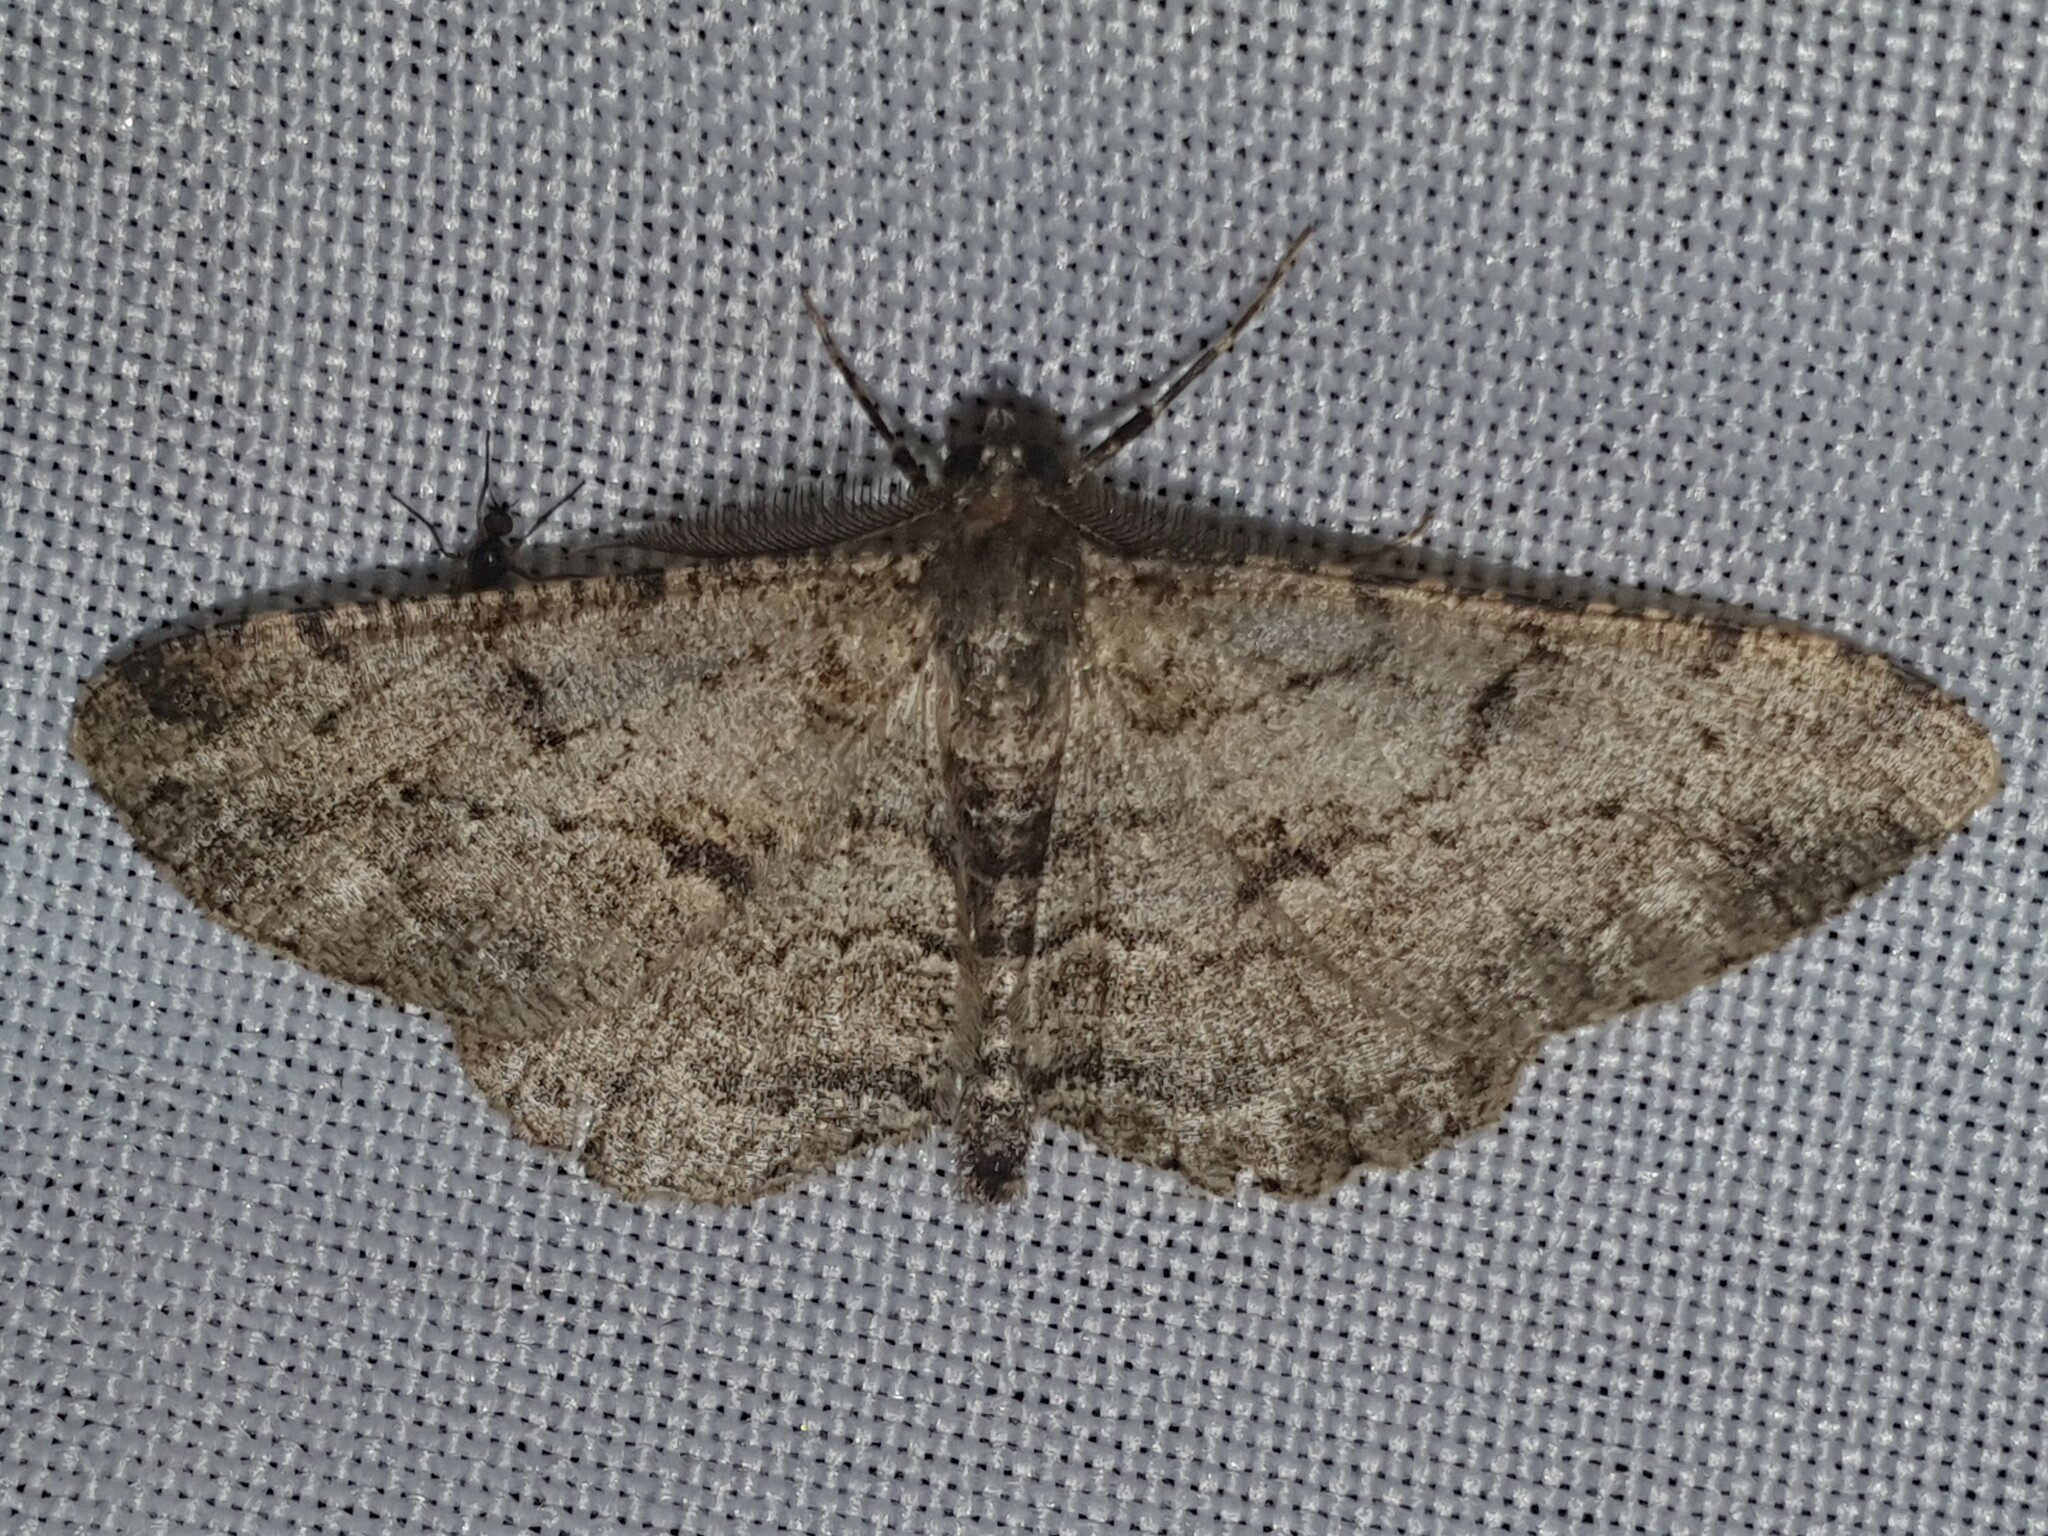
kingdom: Animalia
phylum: Arthropoda
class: Insecta
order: Lepidoptera
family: Geometridae
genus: Peribatodes
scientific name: Peribatodes rhomboidaria
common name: Willow beauty
